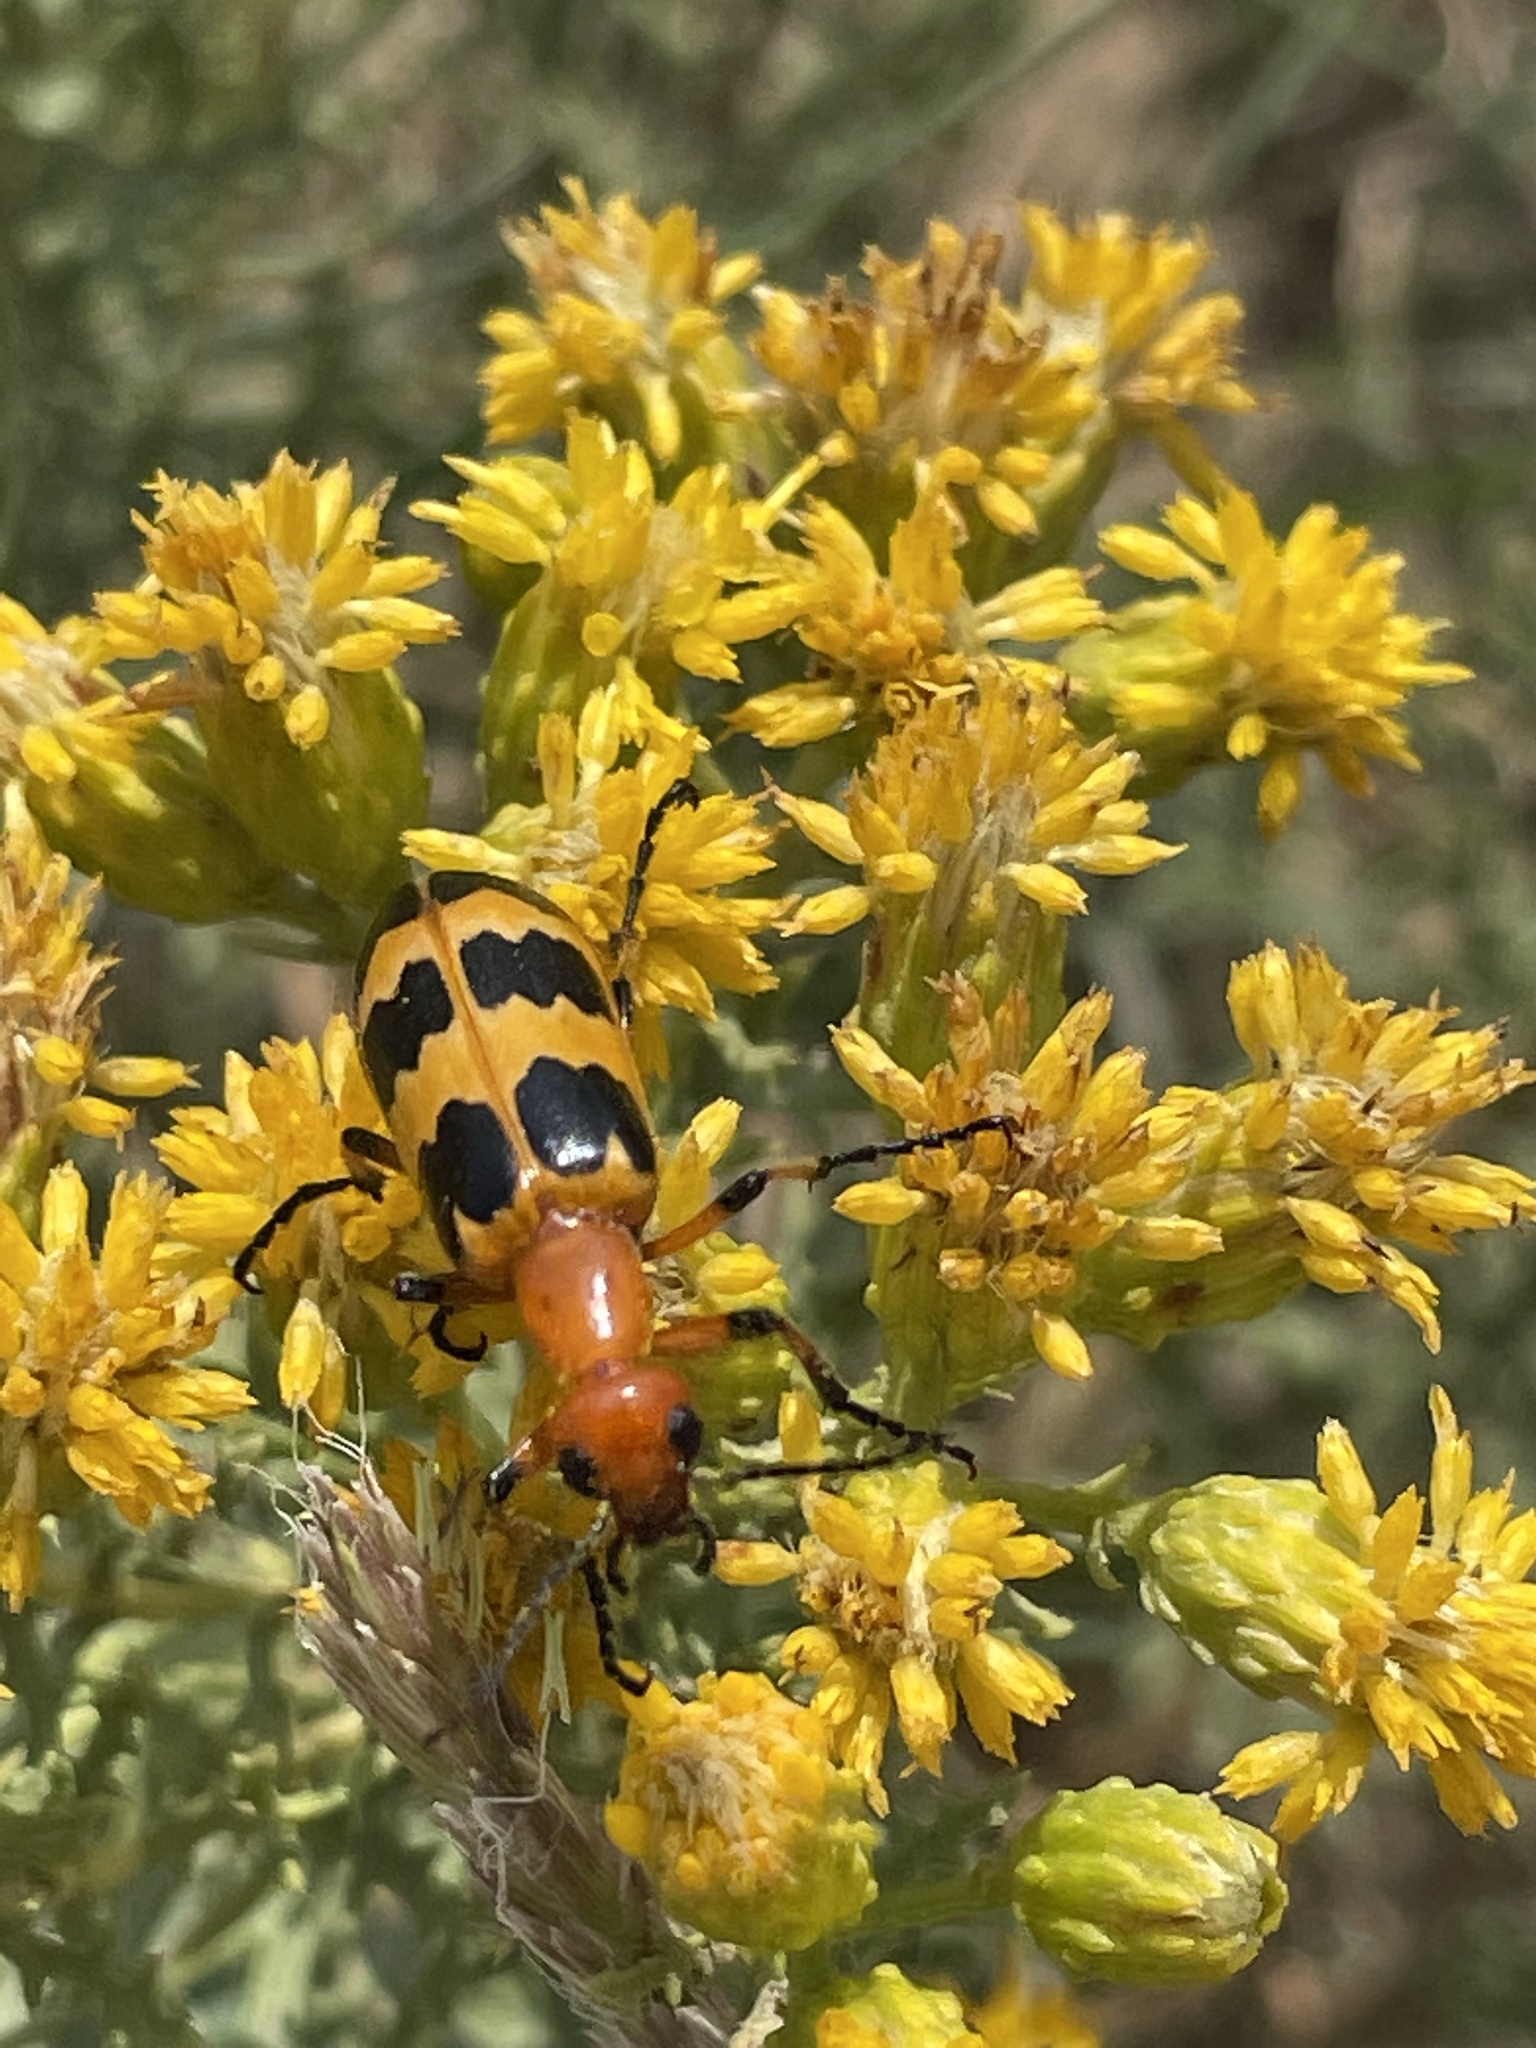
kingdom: Animalia
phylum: Arthropoda
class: Insecta
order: Coleoptera
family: Meloidae
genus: Pyrota
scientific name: Pyrota palpalis
